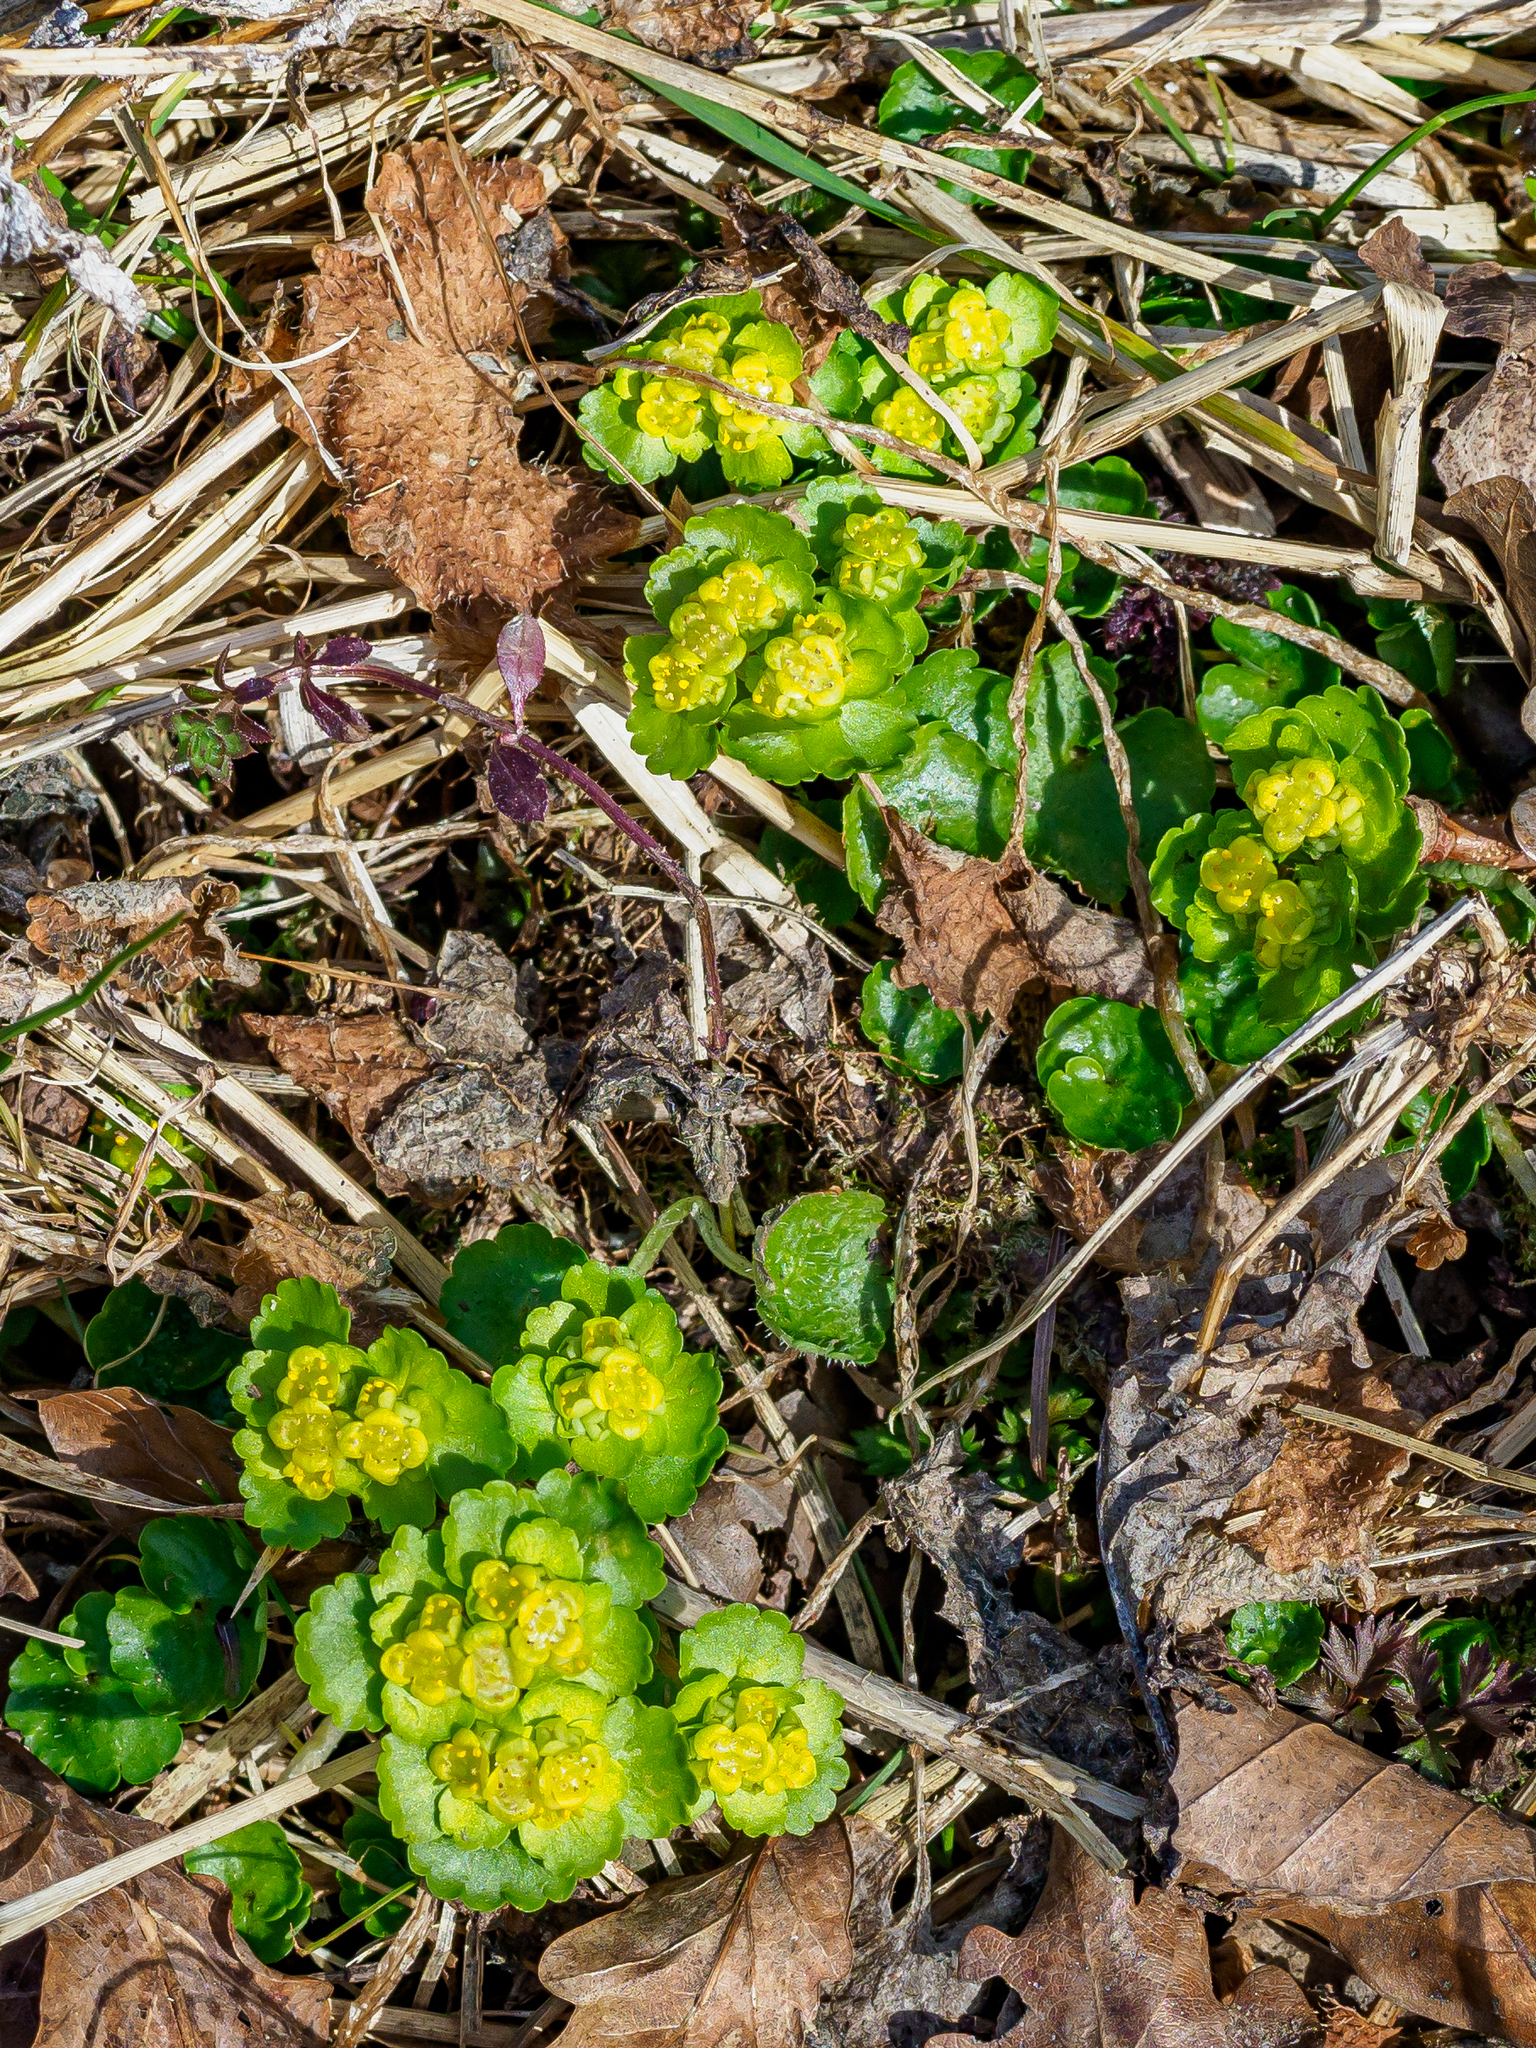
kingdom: Plantae
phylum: Tracheophyta
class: Magnoliopsida
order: Saxifragales
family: Saxifragaceae
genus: Chrysosplenium
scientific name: Chrysosplenium alternifolium
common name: Alternate-leaved golden-saxifrage
